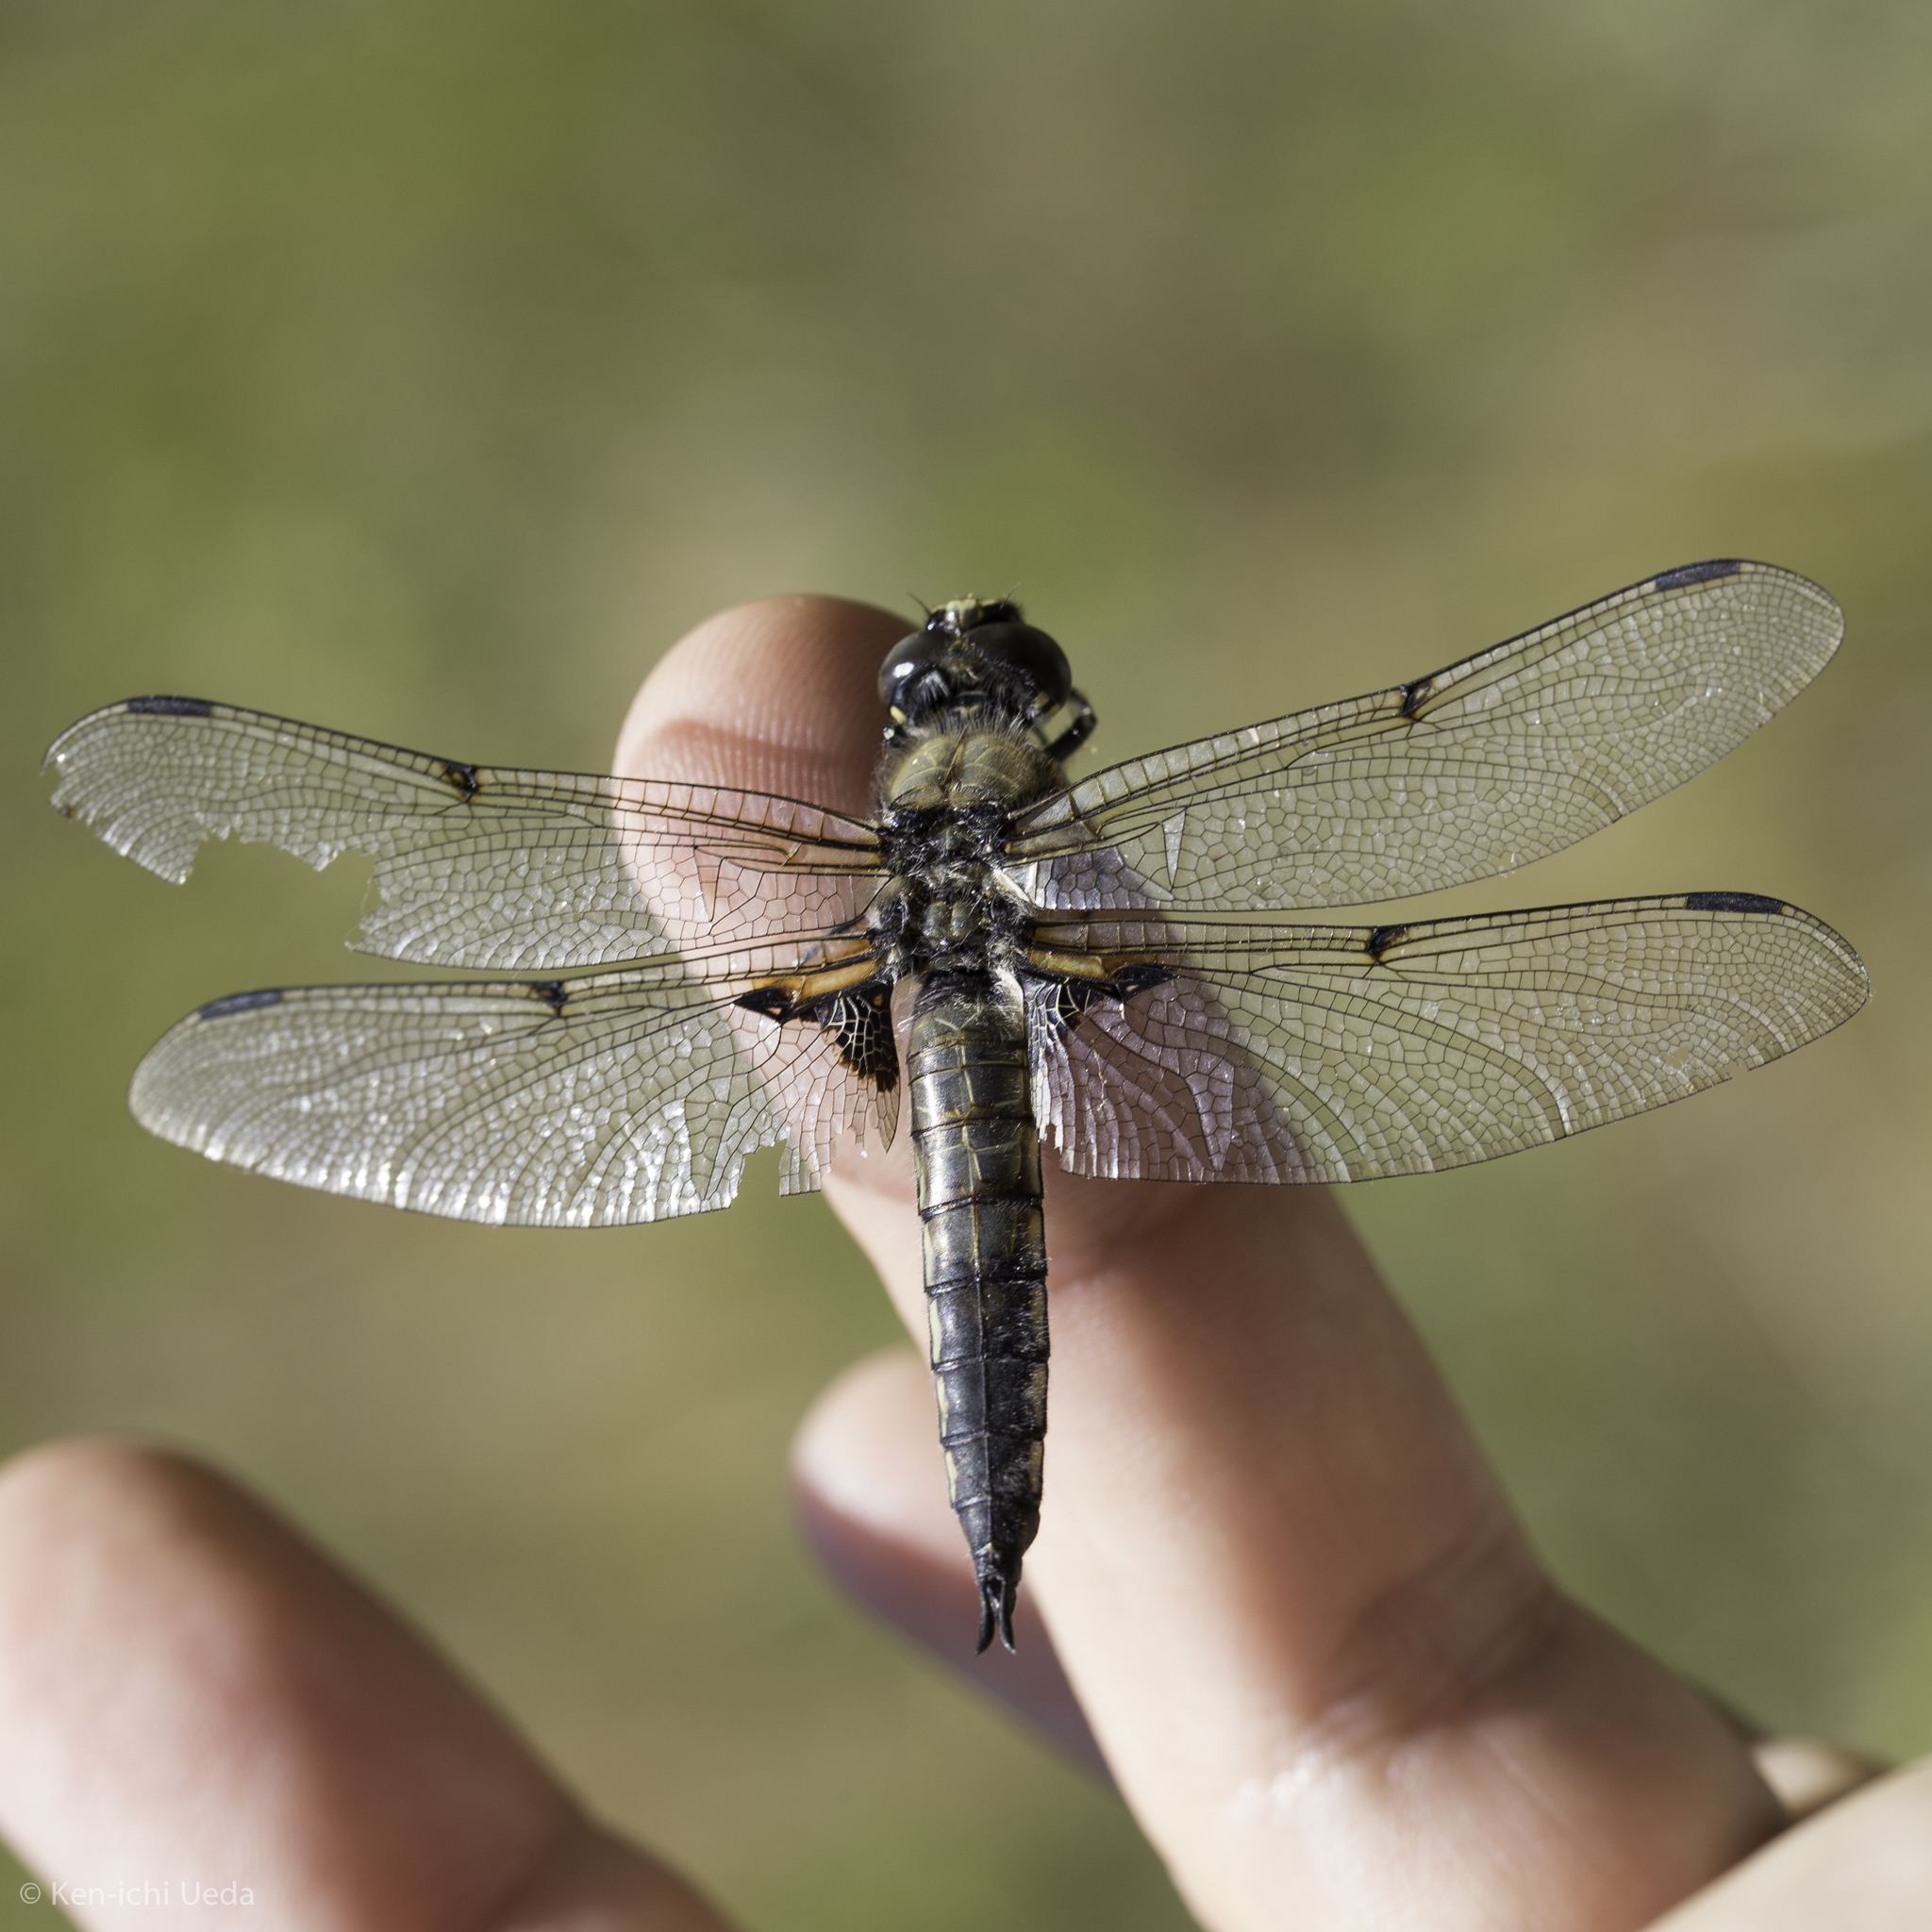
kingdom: Animalia
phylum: Arthropoda
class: Insecta
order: Odonata
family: Libellulidae
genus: Libellula
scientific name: Libellula quadrimaculata
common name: Four-spotted chaser
